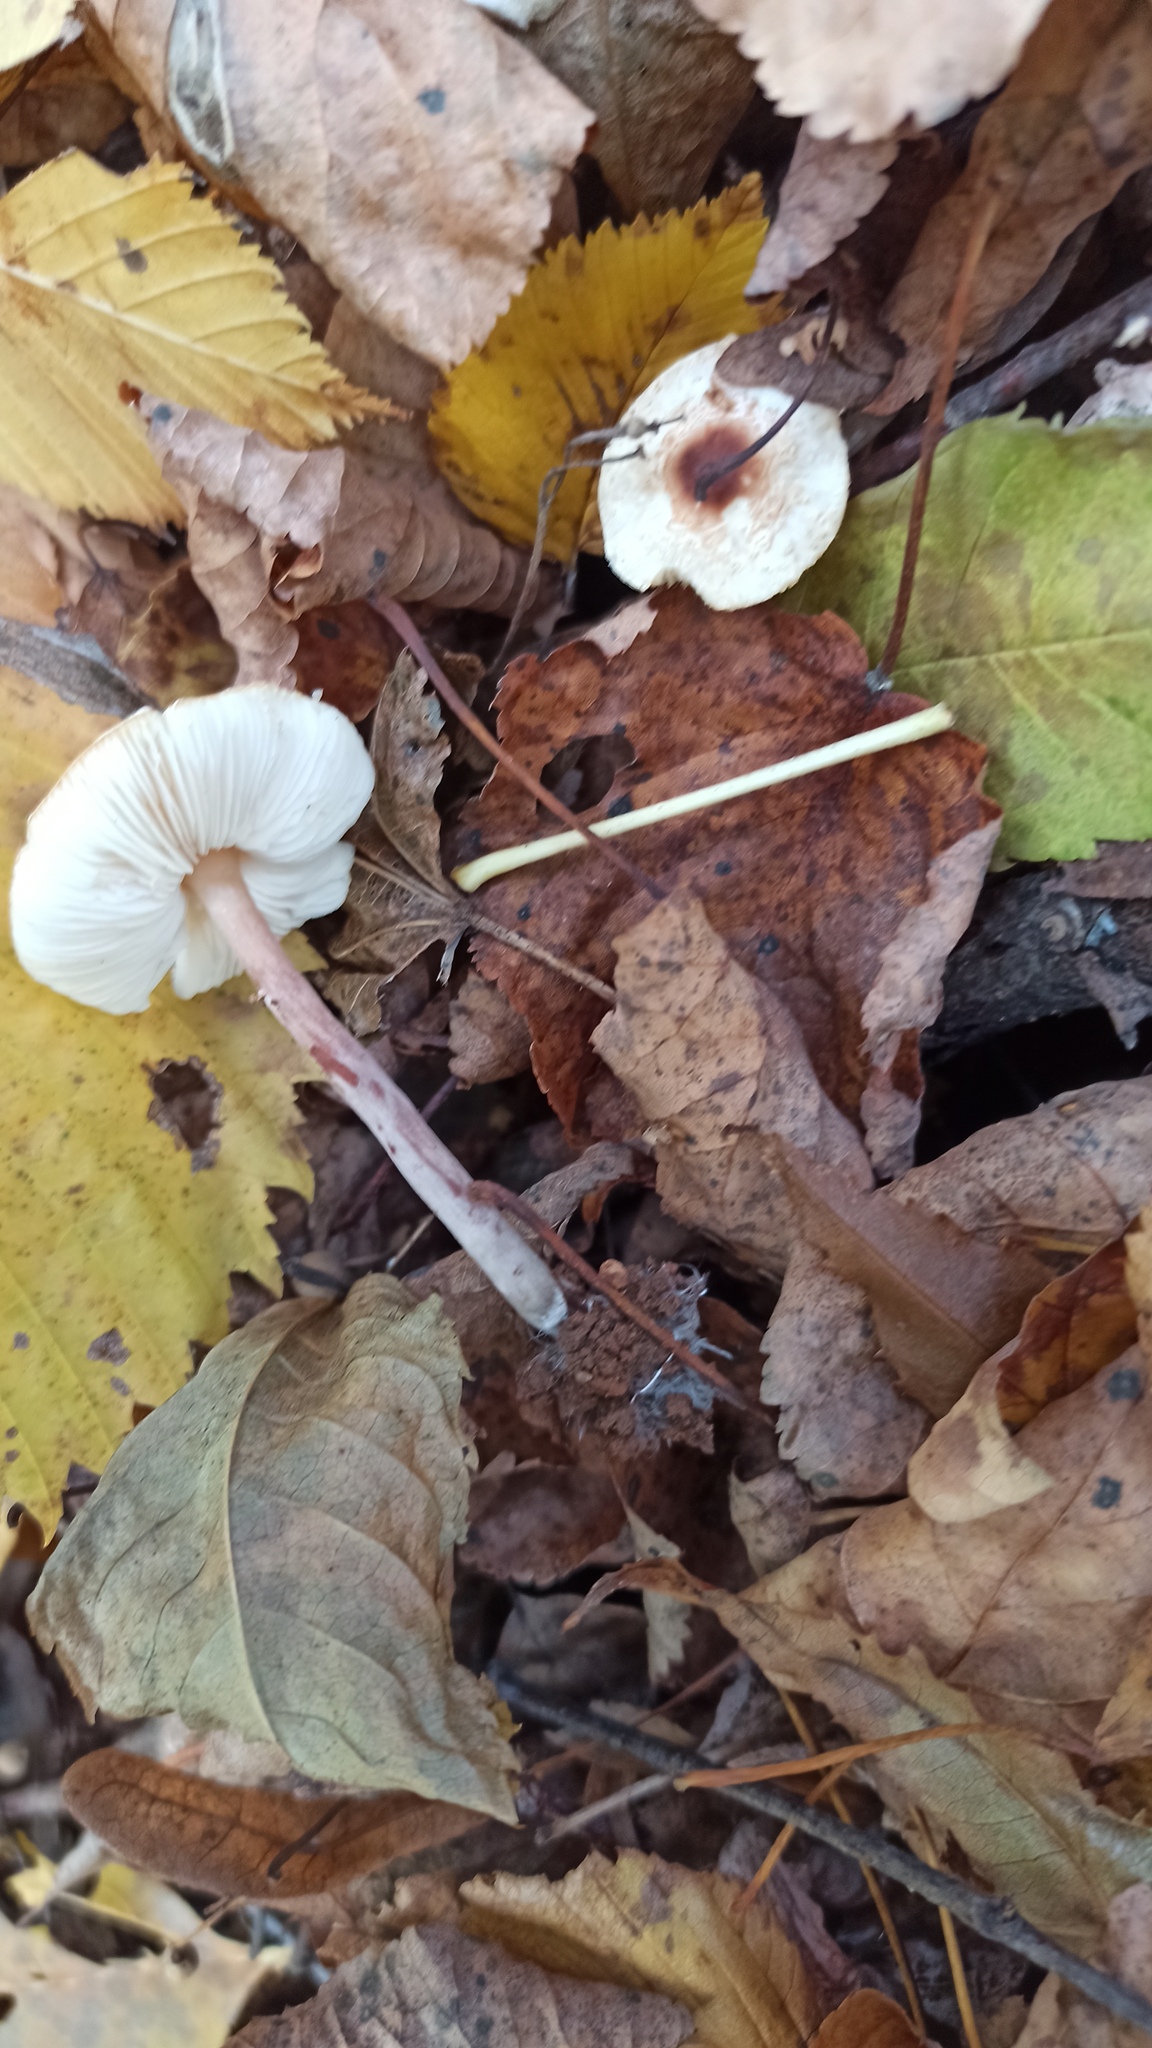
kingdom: Fungi
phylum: Basidiomycota
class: Agaricomycetes
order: Agaricales
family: Agaricaceae
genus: Lepiota
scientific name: Lepiota cristata
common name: Stinking dapperling
